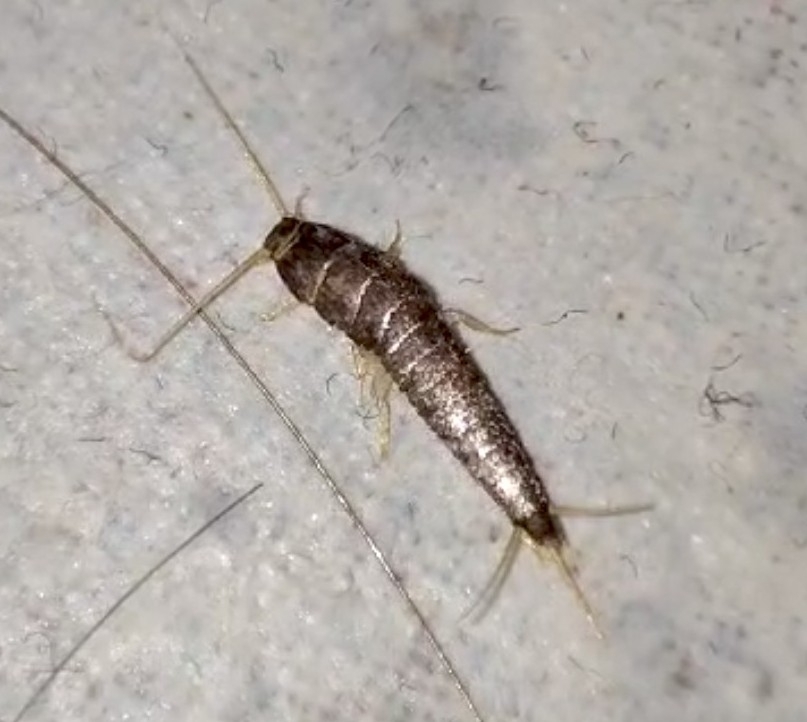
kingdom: Animalia
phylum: Arthropoda
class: Insecta
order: Zygentoma
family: Lepismatidae
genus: Lepisma
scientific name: Lepisma saccharinum
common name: Silverfish
